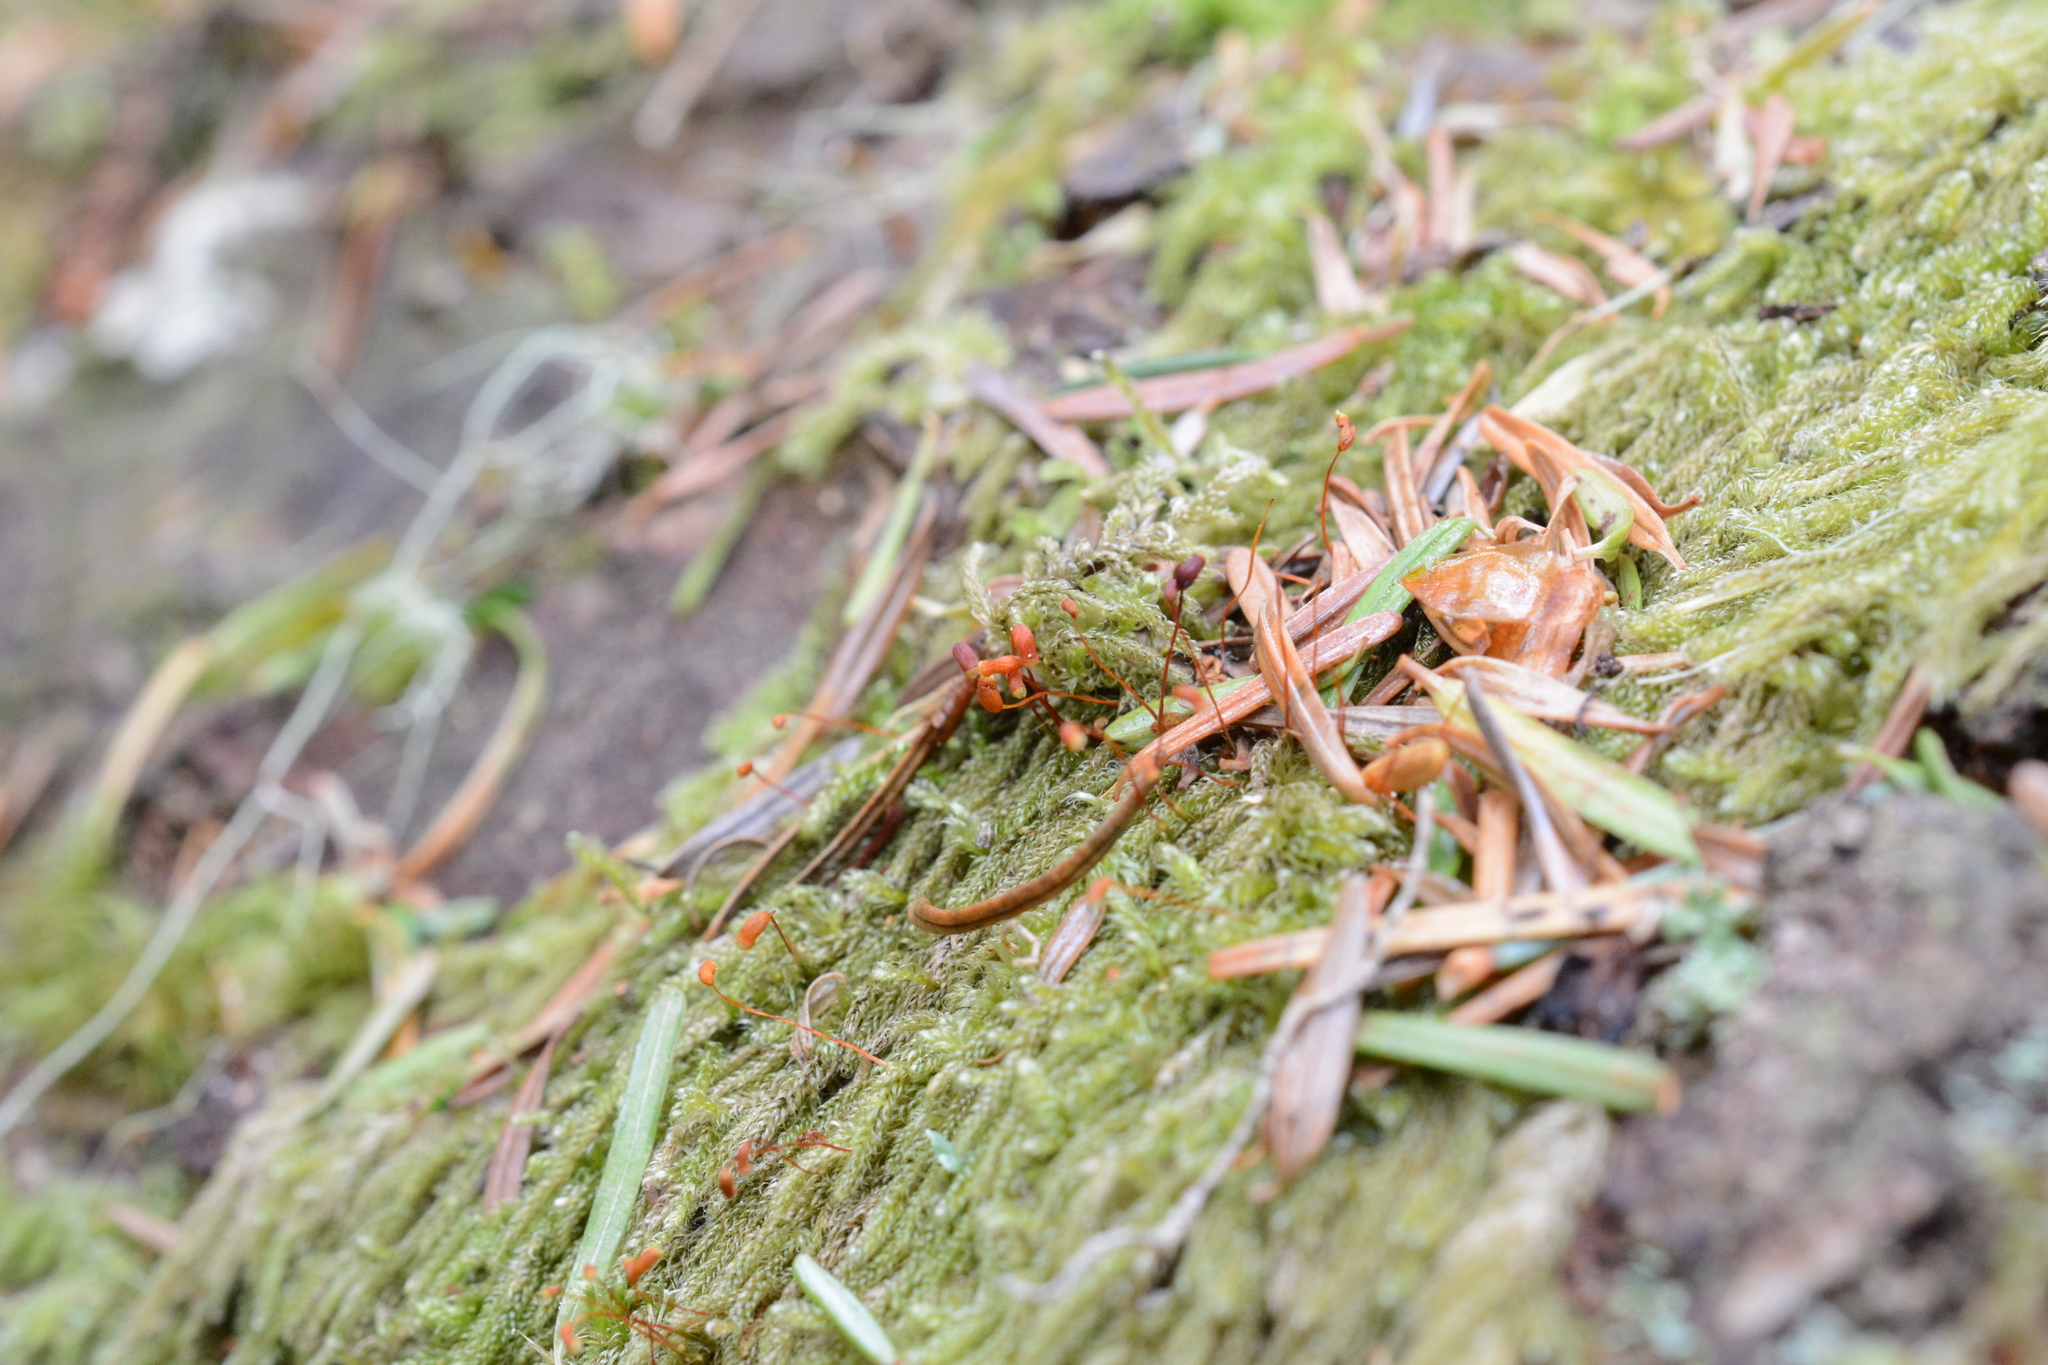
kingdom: Plantae
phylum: Bryophyta
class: Bryopsida
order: Hypnales
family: Pylaisiadelphaceae
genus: Trochophyllohypnum
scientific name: Trochophyllohypnum circinale
